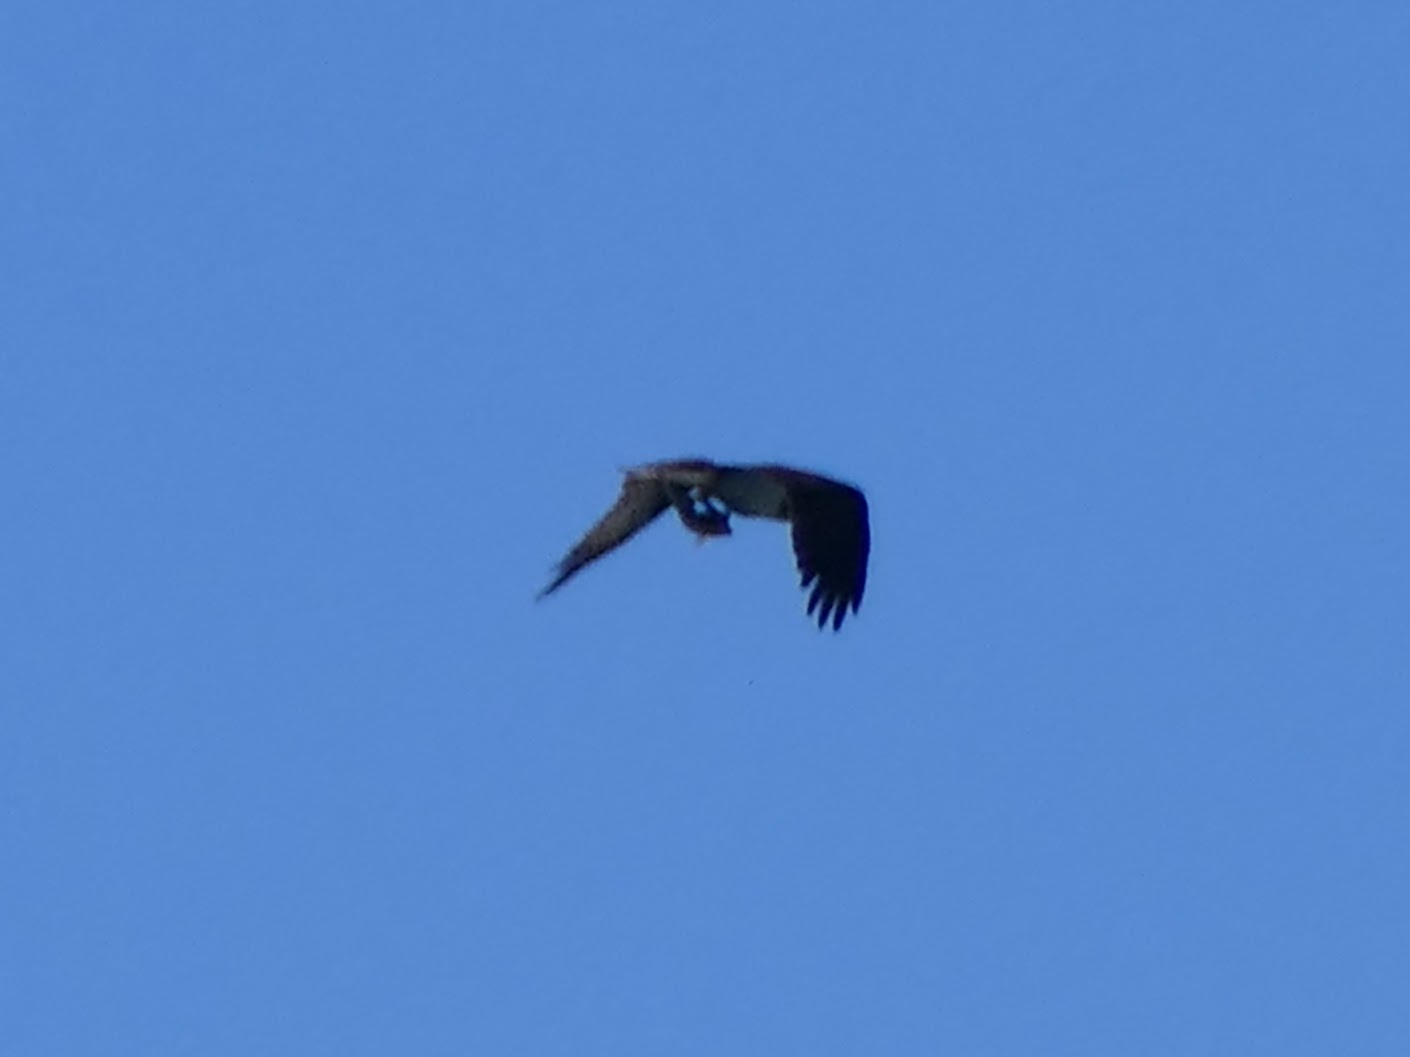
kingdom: Animalia
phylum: Chordata
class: Aves
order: Accipitriformes
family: Pandionidae
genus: Pandion
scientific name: Pandion haliaetus
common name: Osprey
